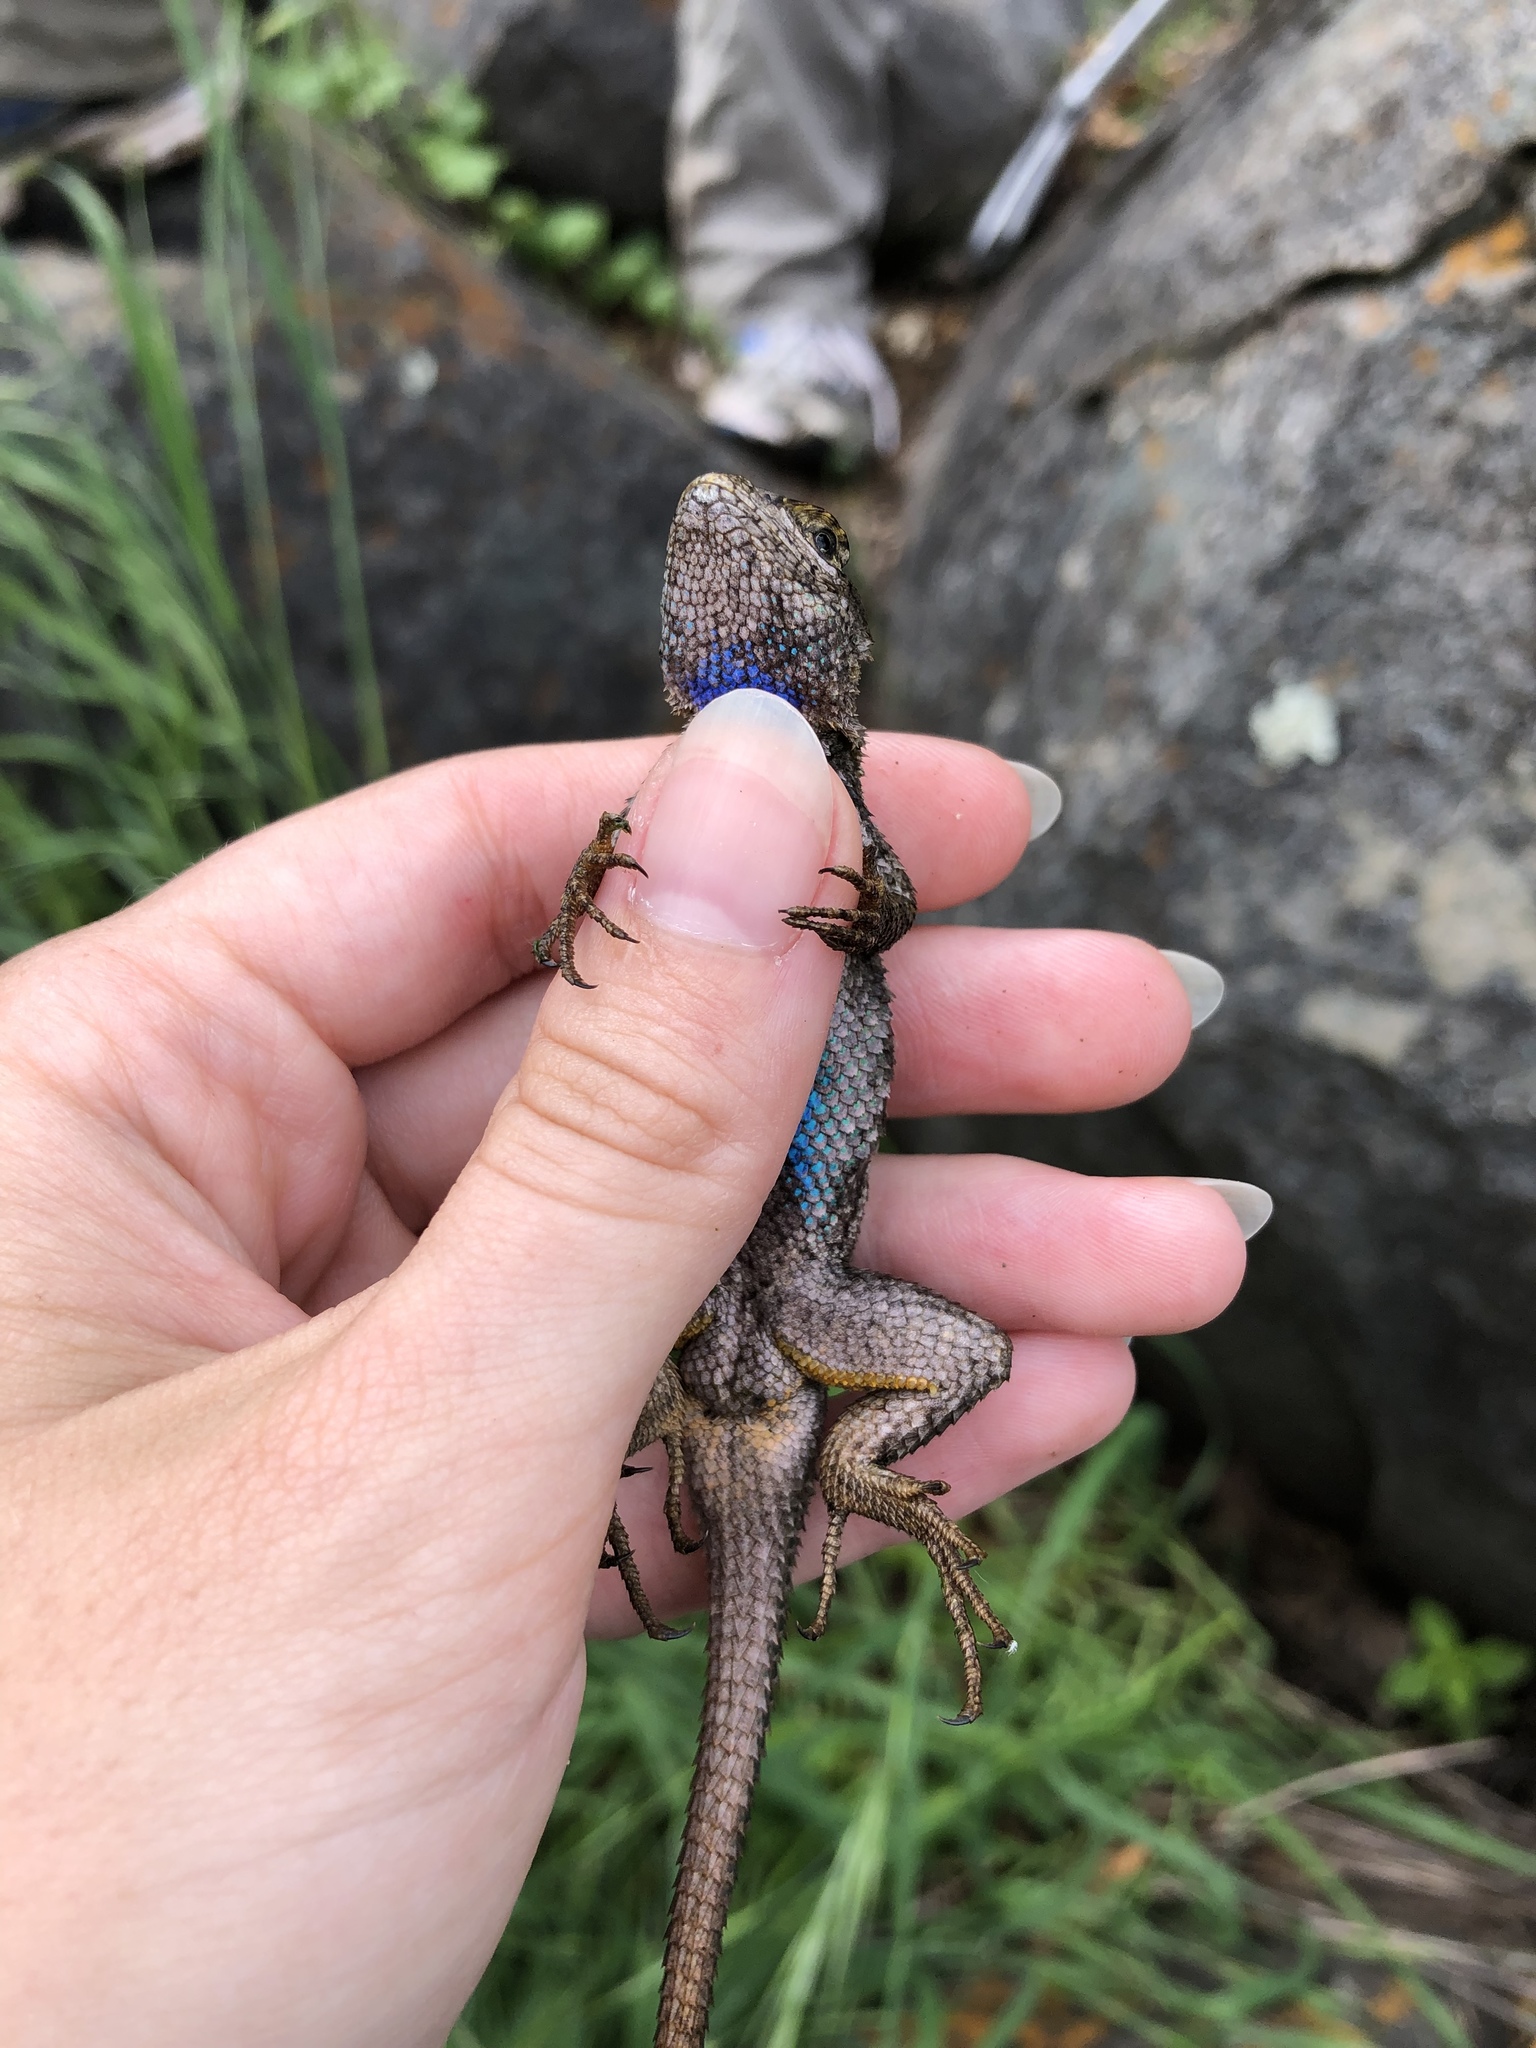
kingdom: Animalia
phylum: Chordata
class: Squamata
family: Phrynosomatidae
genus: Sceloporus
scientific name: Sceloporus occidentalis
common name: Western fence lizard
